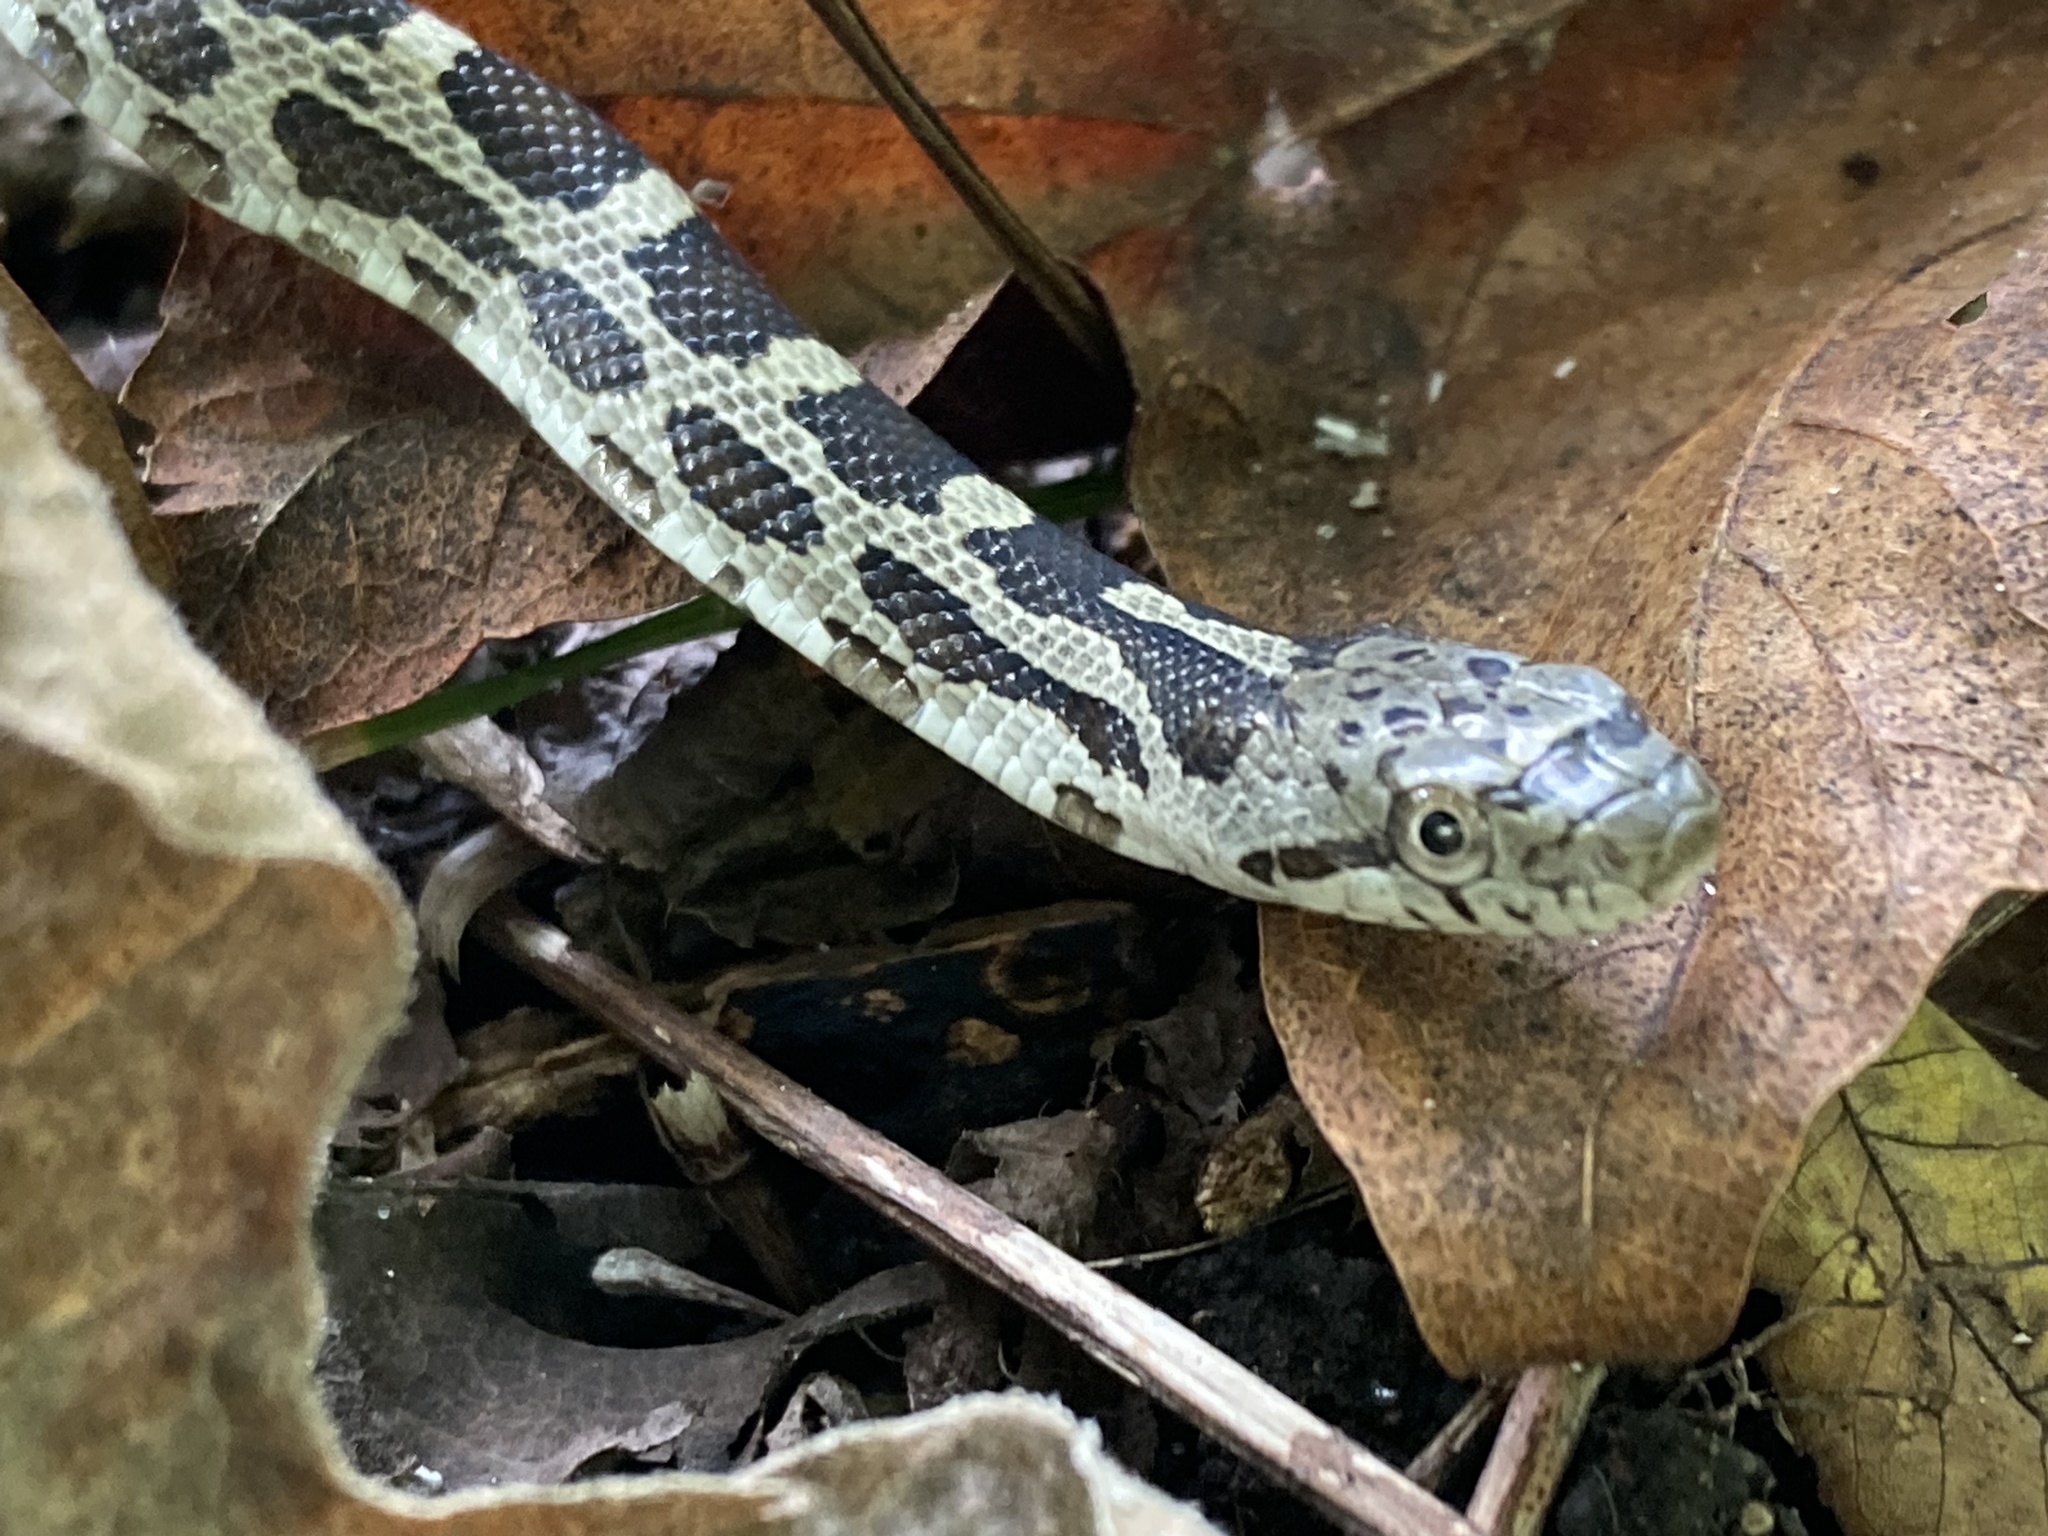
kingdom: Animalia
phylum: Chordata
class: Squamata
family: Colubridae
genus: Pantherophis
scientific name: Pantherophis spiloides
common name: Gray rat snake
